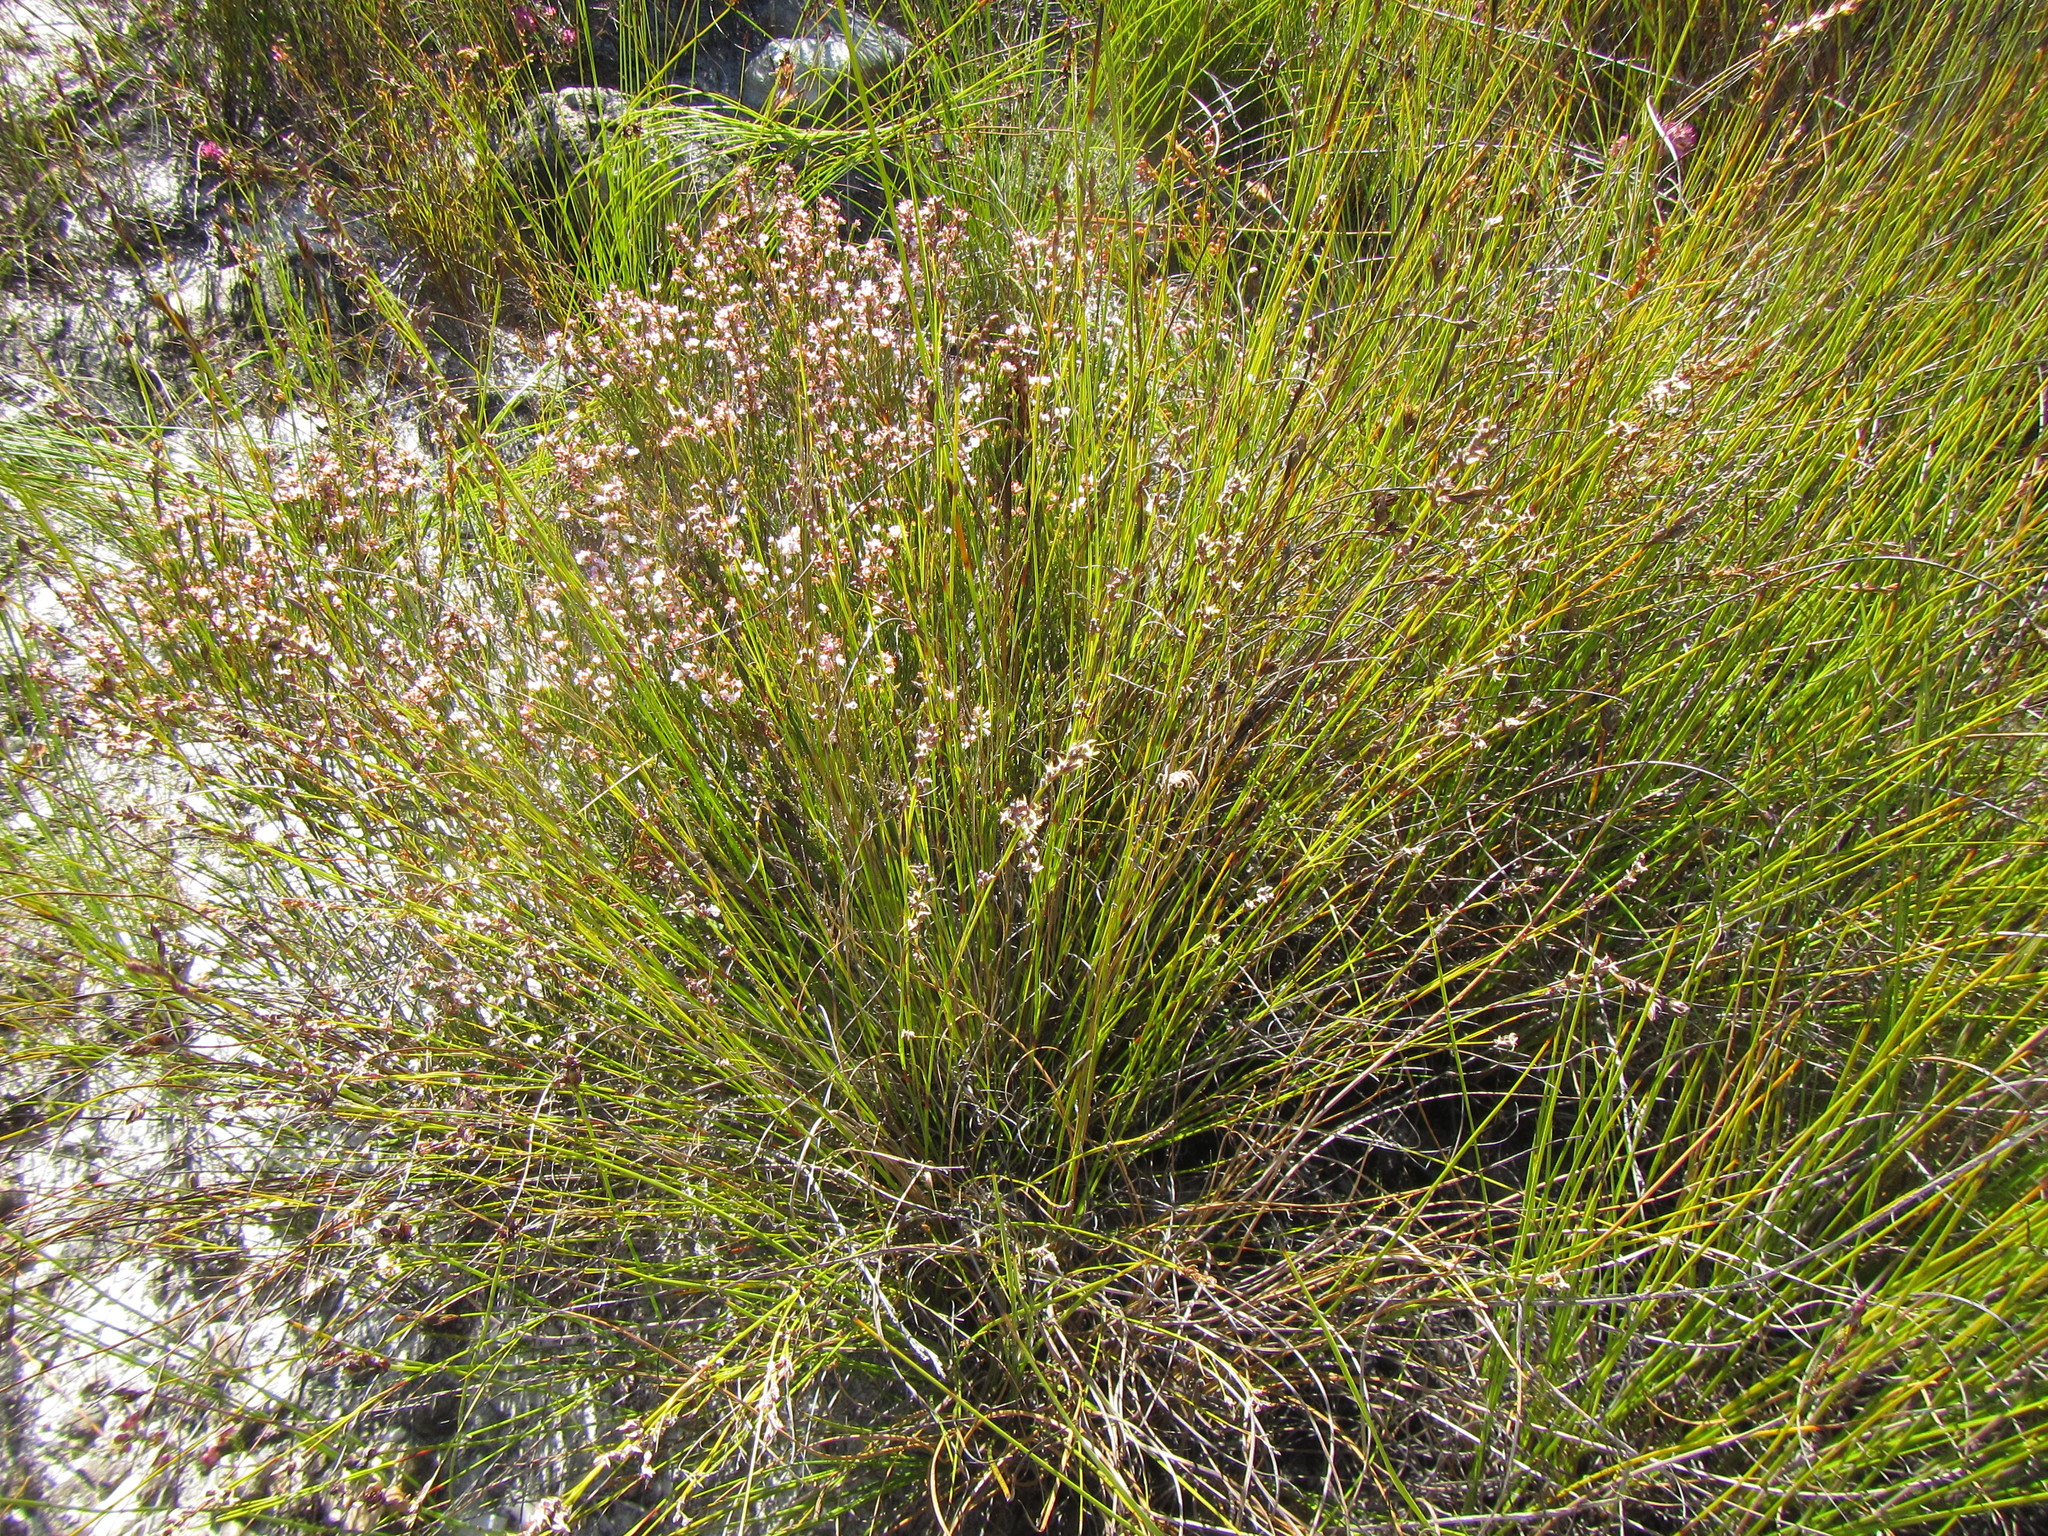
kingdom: Plantae
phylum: Tracheophyta
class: Liliopsida
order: Poales
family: Cyperaceae
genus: Tetraria
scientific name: Tetraria fimbriolata
